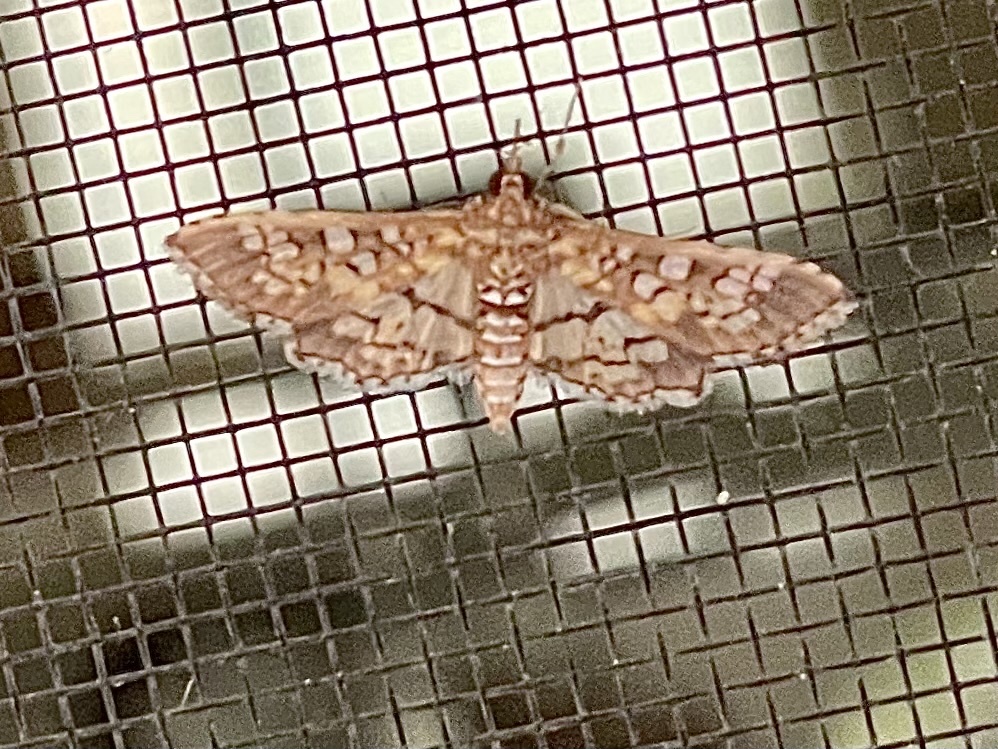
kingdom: Animalia
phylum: Arthropoda
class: Insecta
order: Lepidoptera
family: Crambidae
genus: Samea
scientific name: Samea ecclesialis
